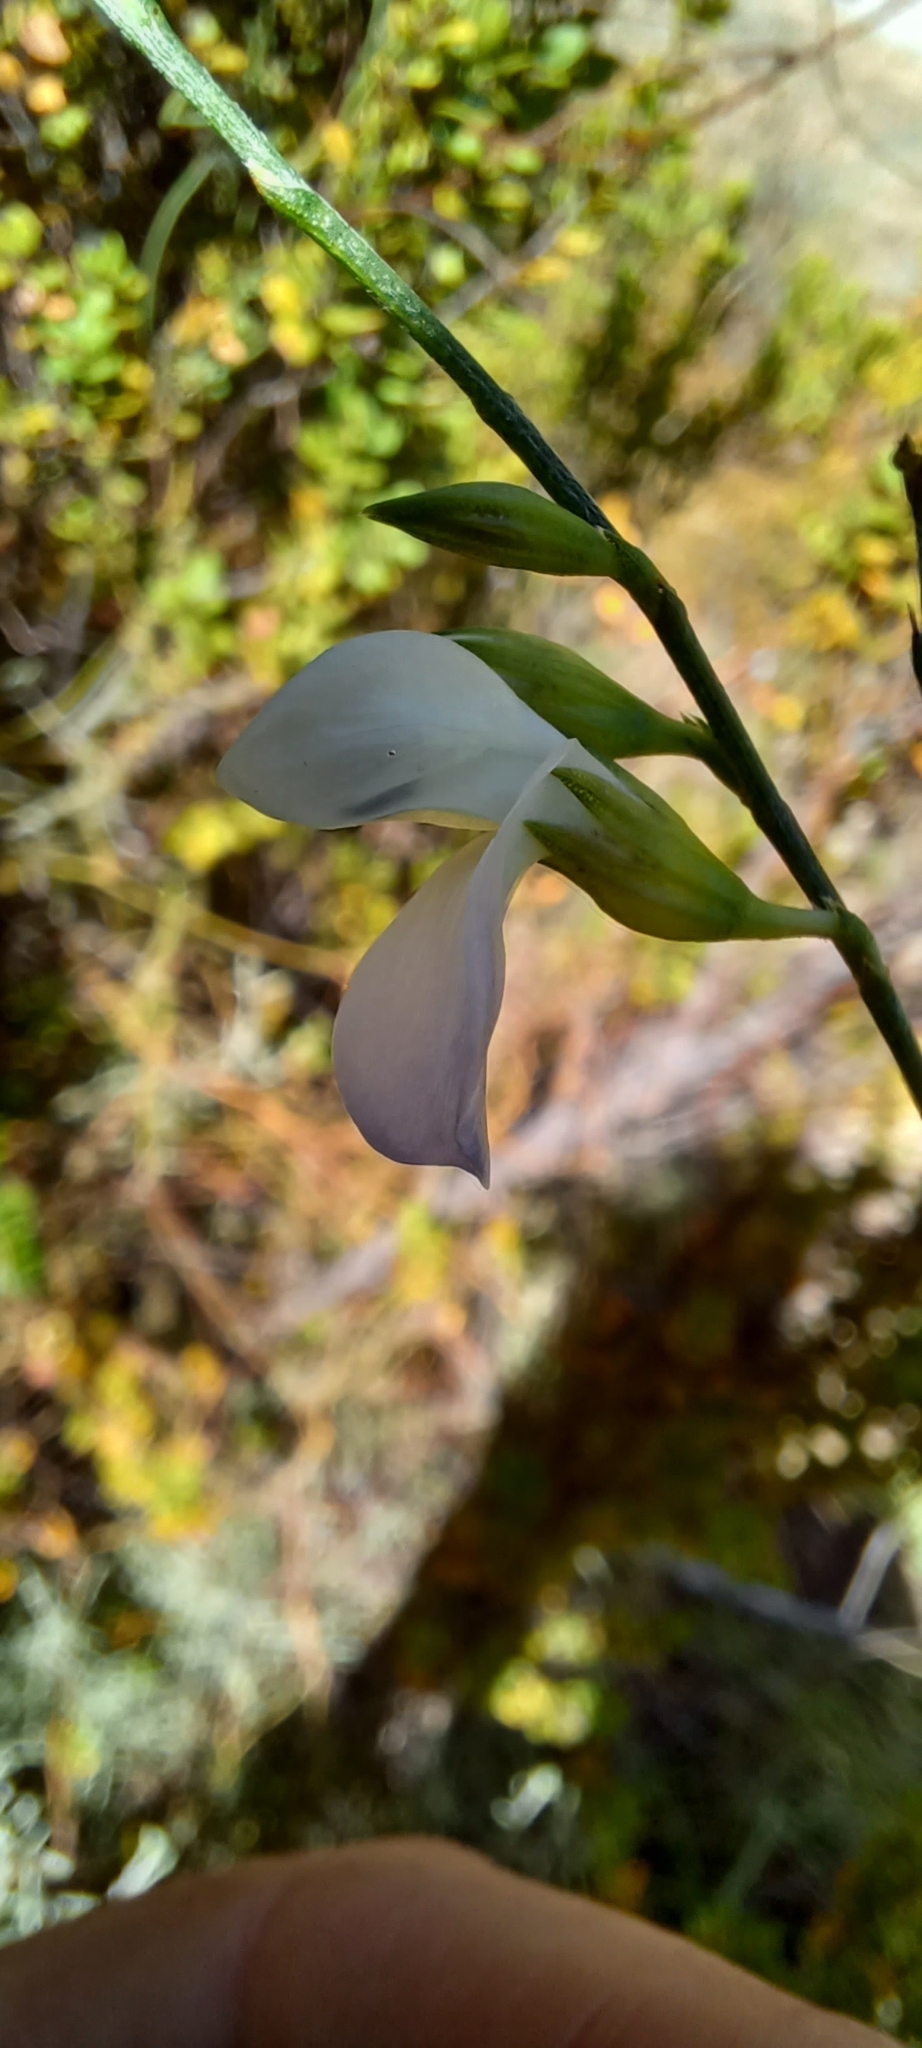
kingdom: Plantae
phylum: Tracheophyta
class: Magnoliopsida
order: Fabales
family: Fabaceae
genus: Psoralea
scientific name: Psoralea fleta
